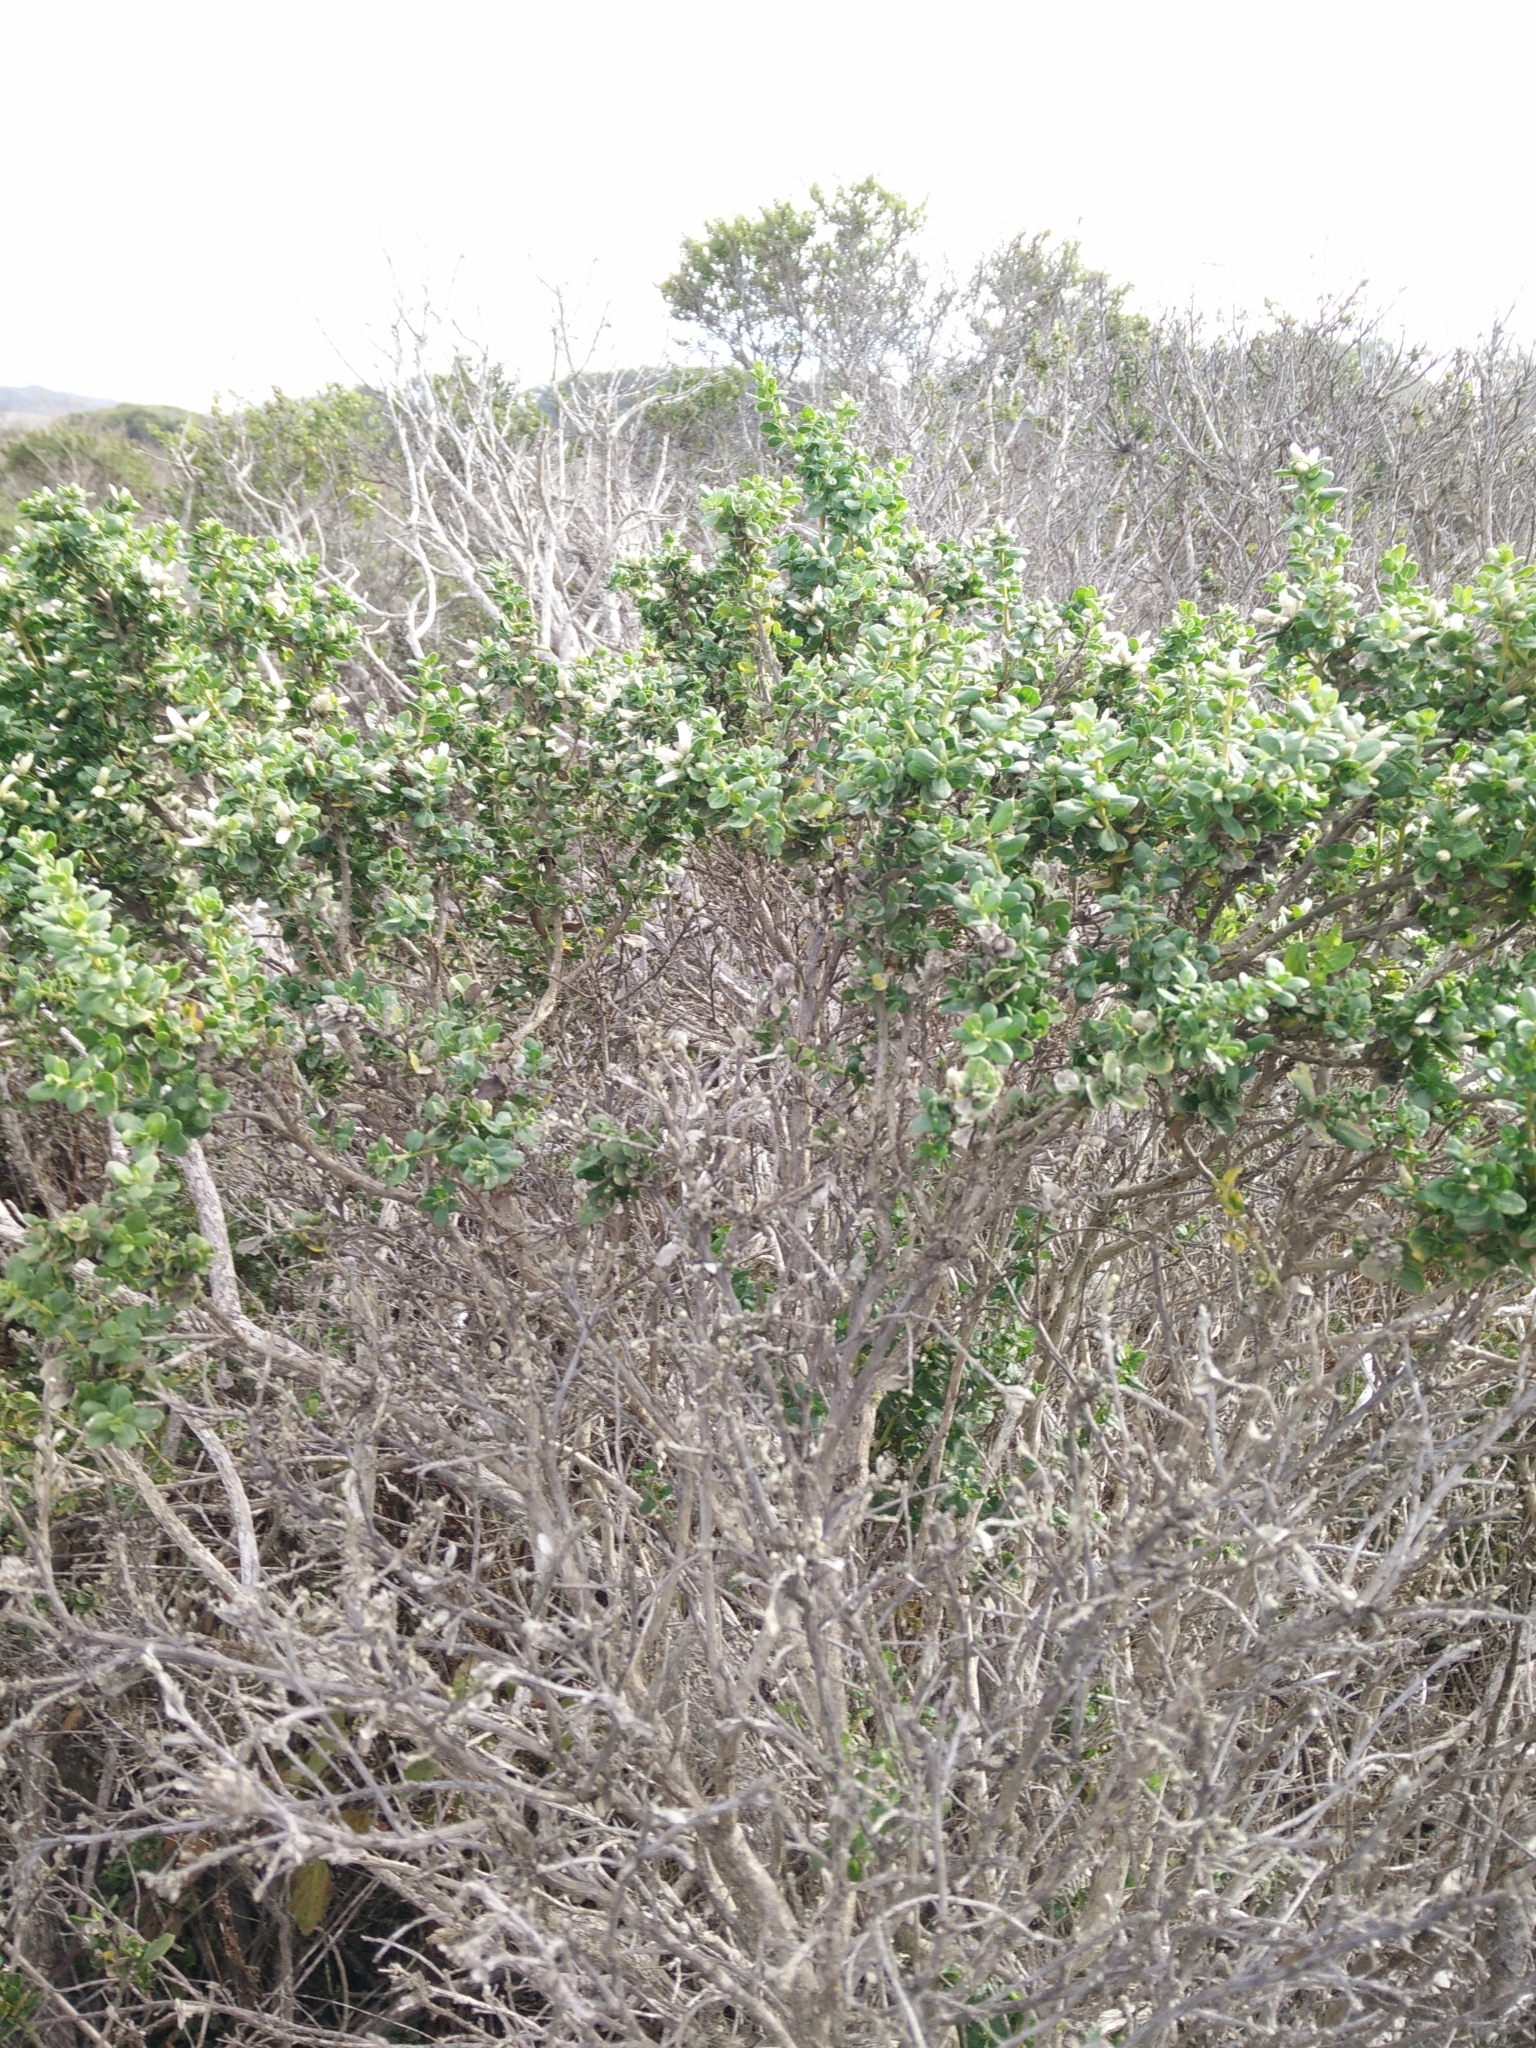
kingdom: Plantae
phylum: Tracheophyta
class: Magnoliopsida
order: Asterales
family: Asteraceae
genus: Baccharis
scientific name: Baccharis pilularis
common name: Coyotebrush
